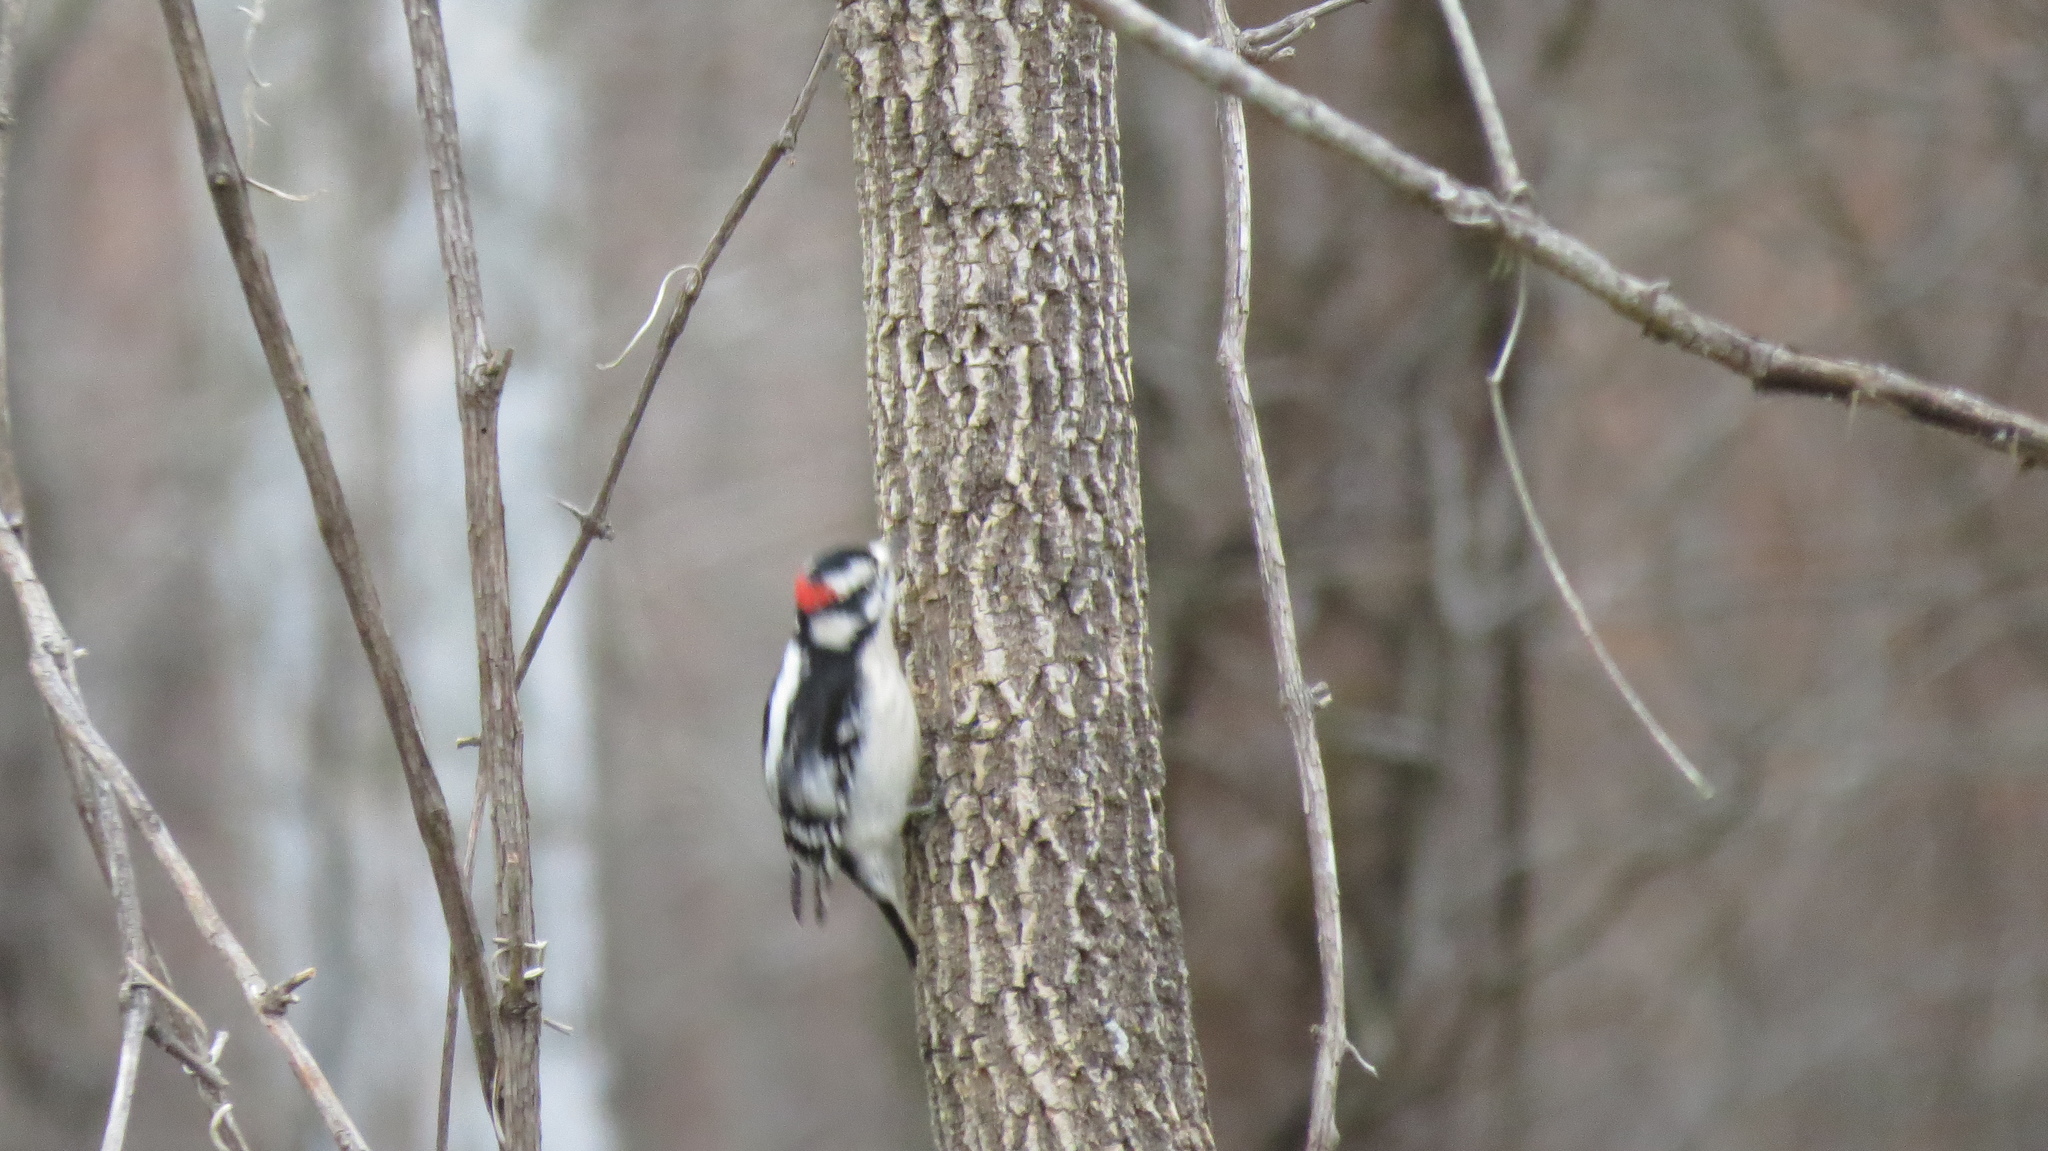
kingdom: Animalia
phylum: Chordata
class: Aves
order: Piciformes
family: Picidae
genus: Dryobates
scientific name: Dryobates pubescens
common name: Downy woodpecker
